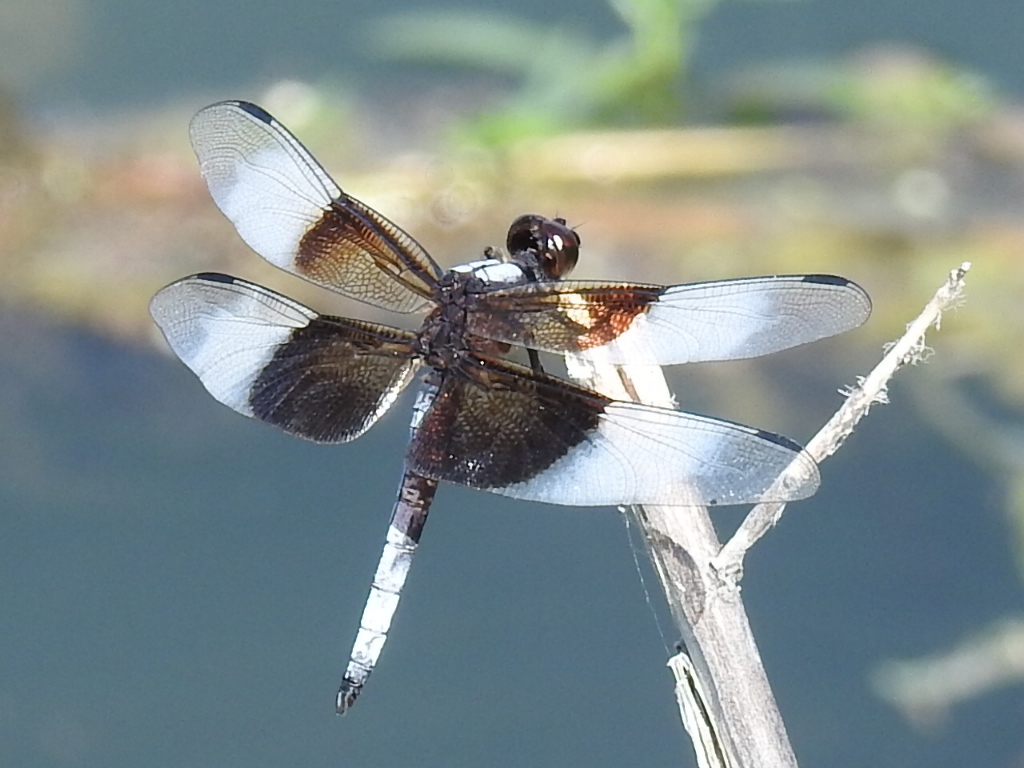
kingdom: Animalia
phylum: Arthropoda
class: Insecta
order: Odonata
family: Libellulidae
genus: Libellula
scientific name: Libellula luctuosa
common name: Widow skimmer
